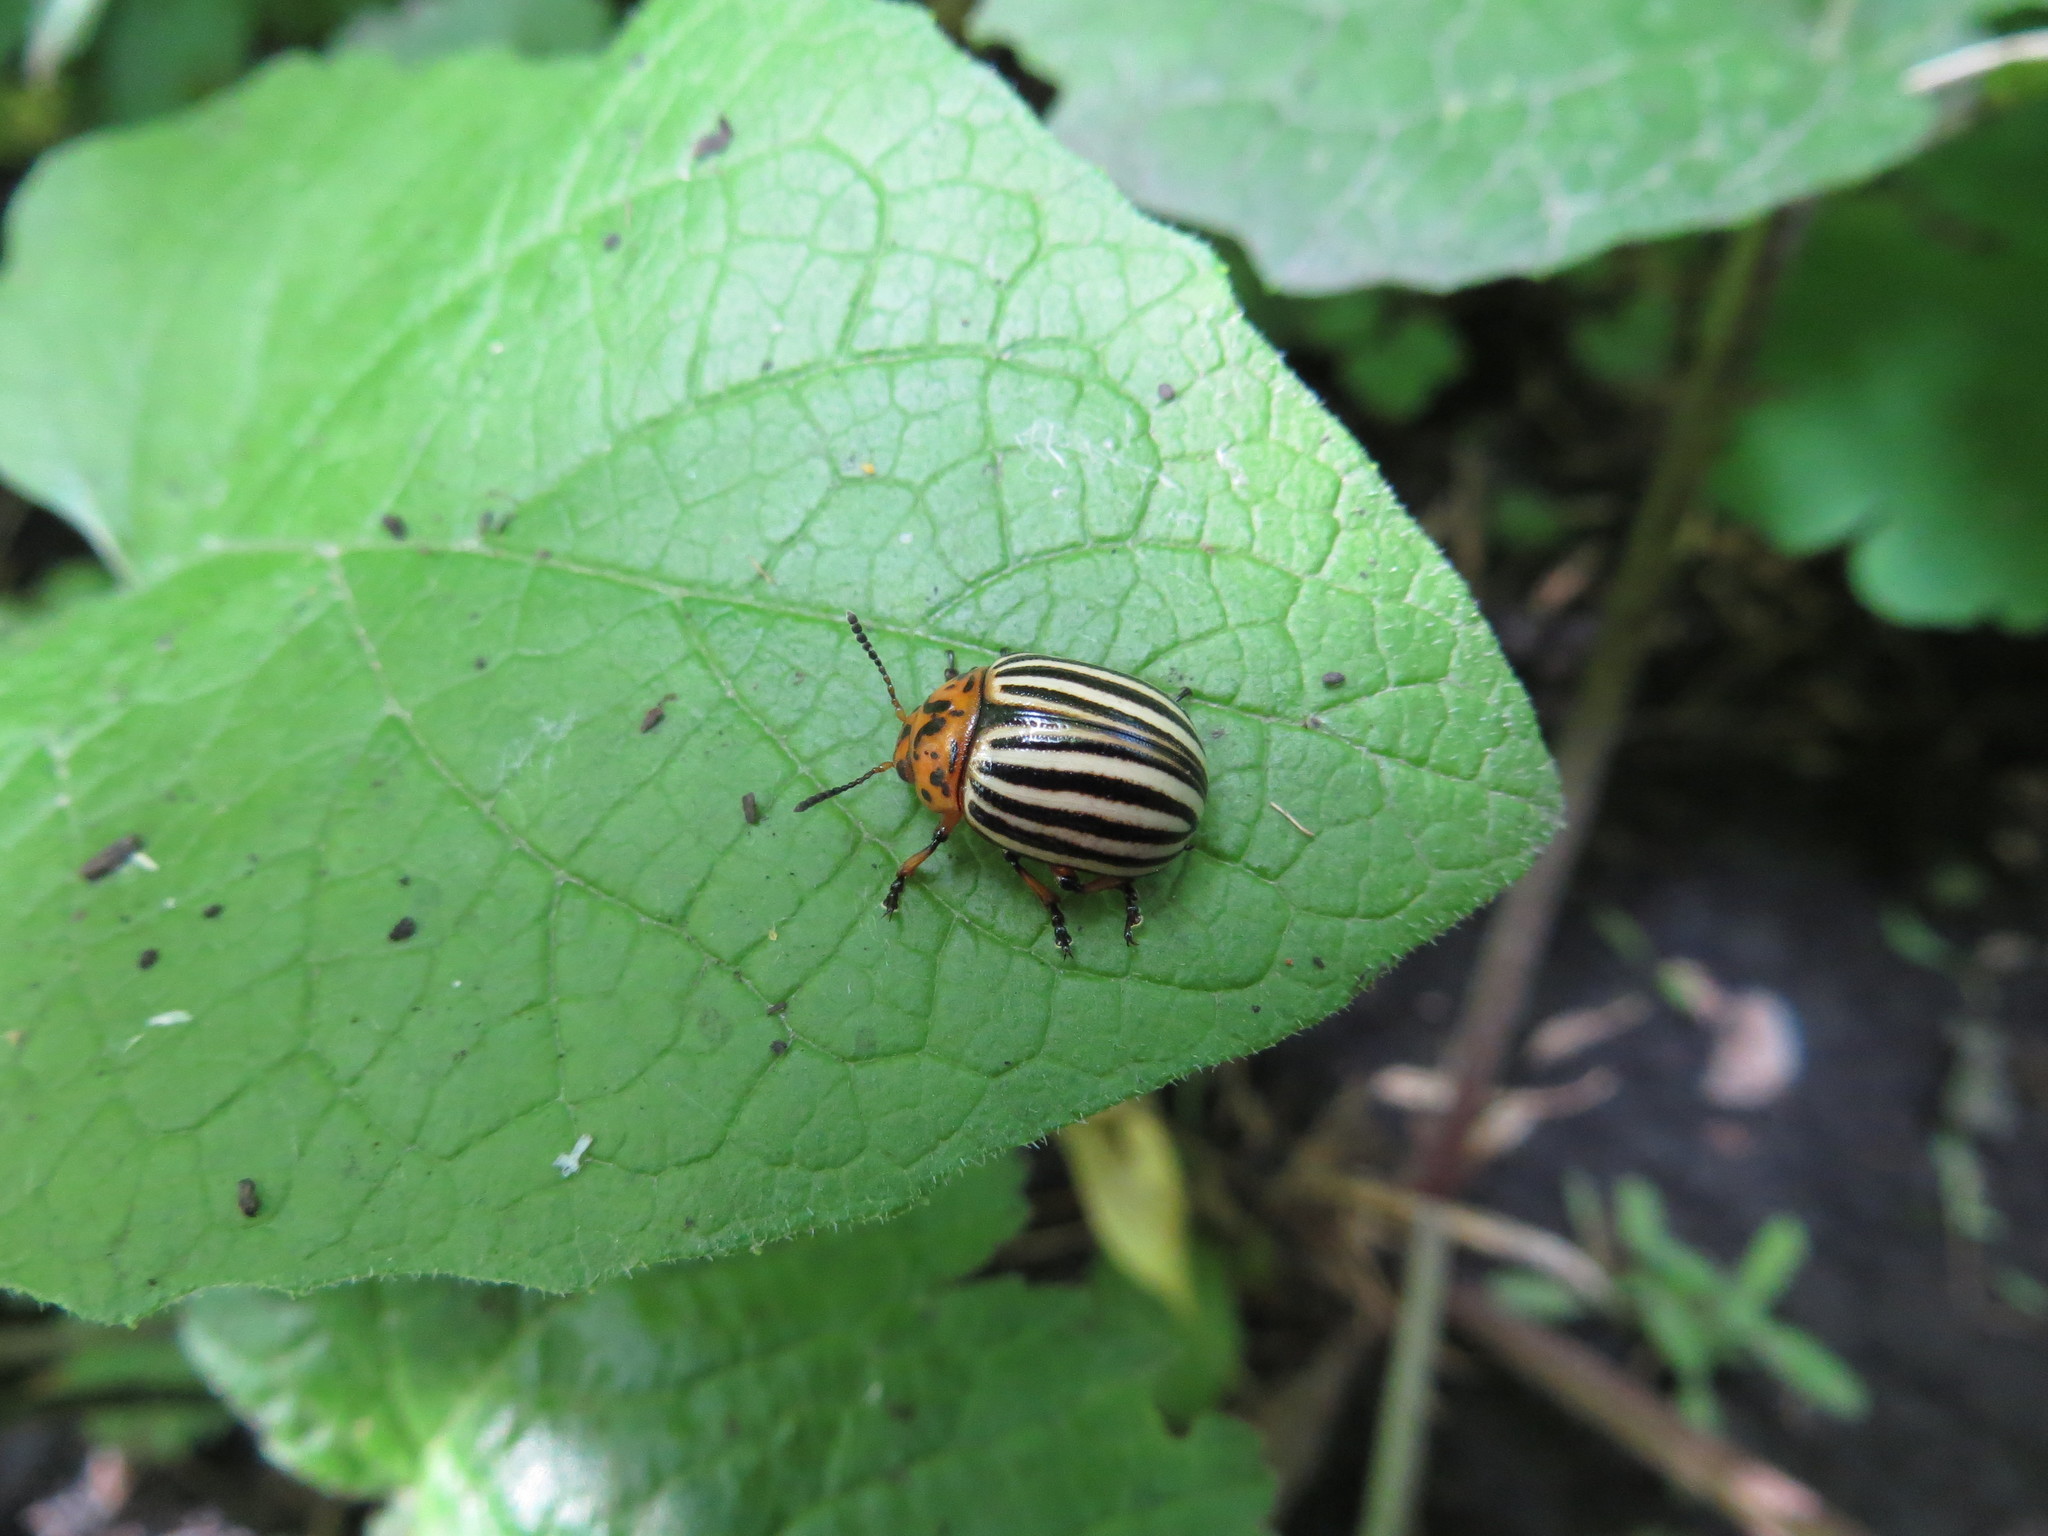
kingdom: Animalia
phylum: Arthropoda
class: Insecta
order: Coleoptera
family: Chrysomelidae
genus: Leptinotarsa
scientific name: Leptinotarsa decemlineata
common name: Colorado potato beetle
